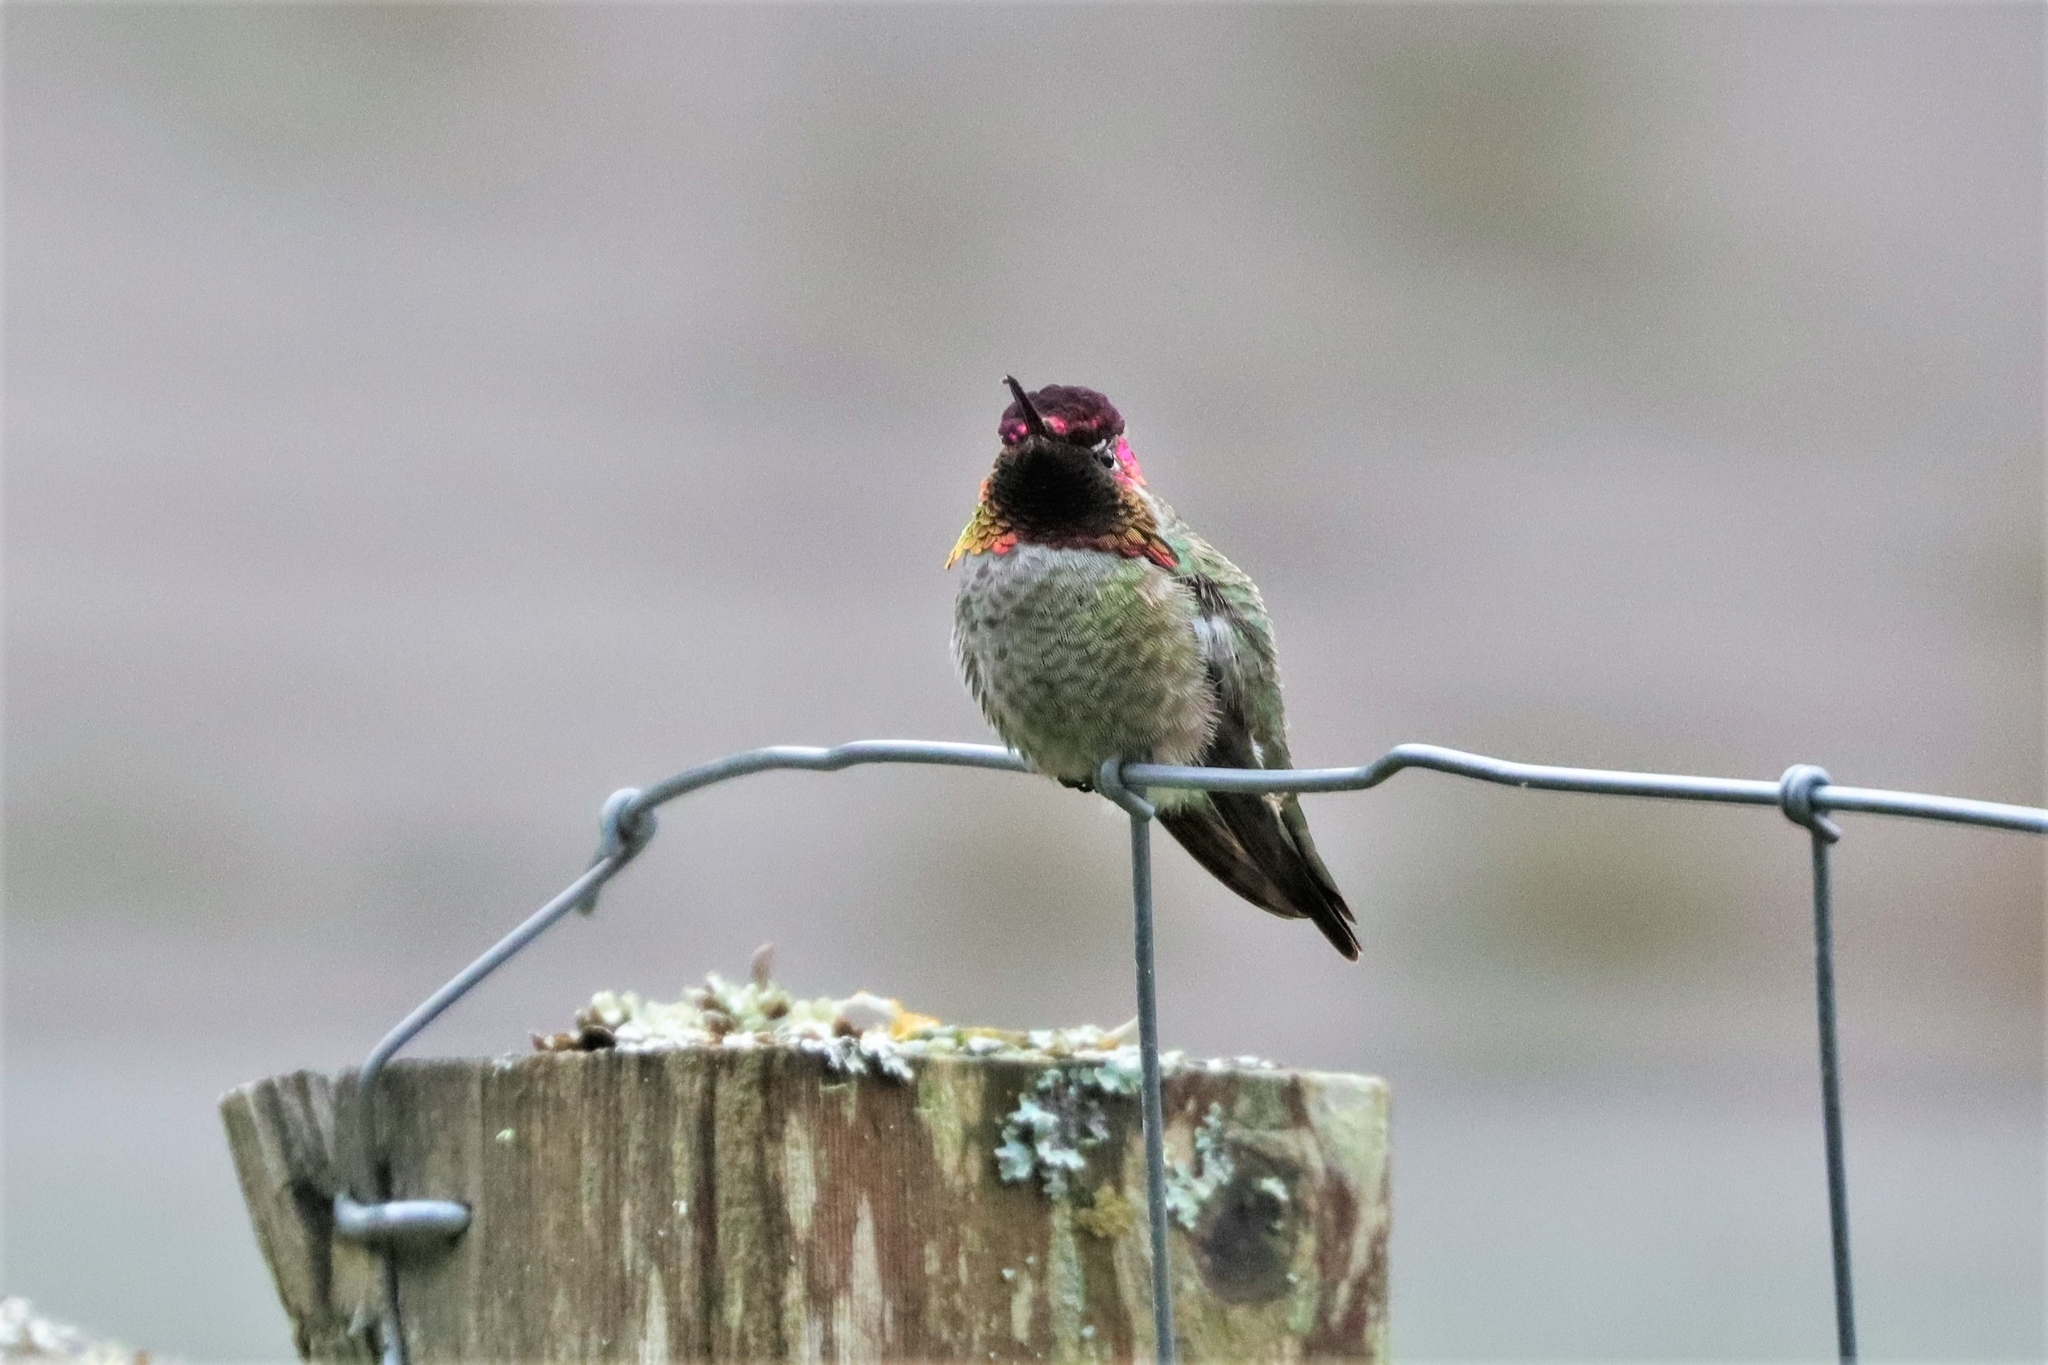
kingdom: Animalia
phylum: Chordata
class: Aves
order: Apodiformes
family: Trochilidae
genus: Calypte
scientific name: Calypte anna
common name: Anna's hummingbird
